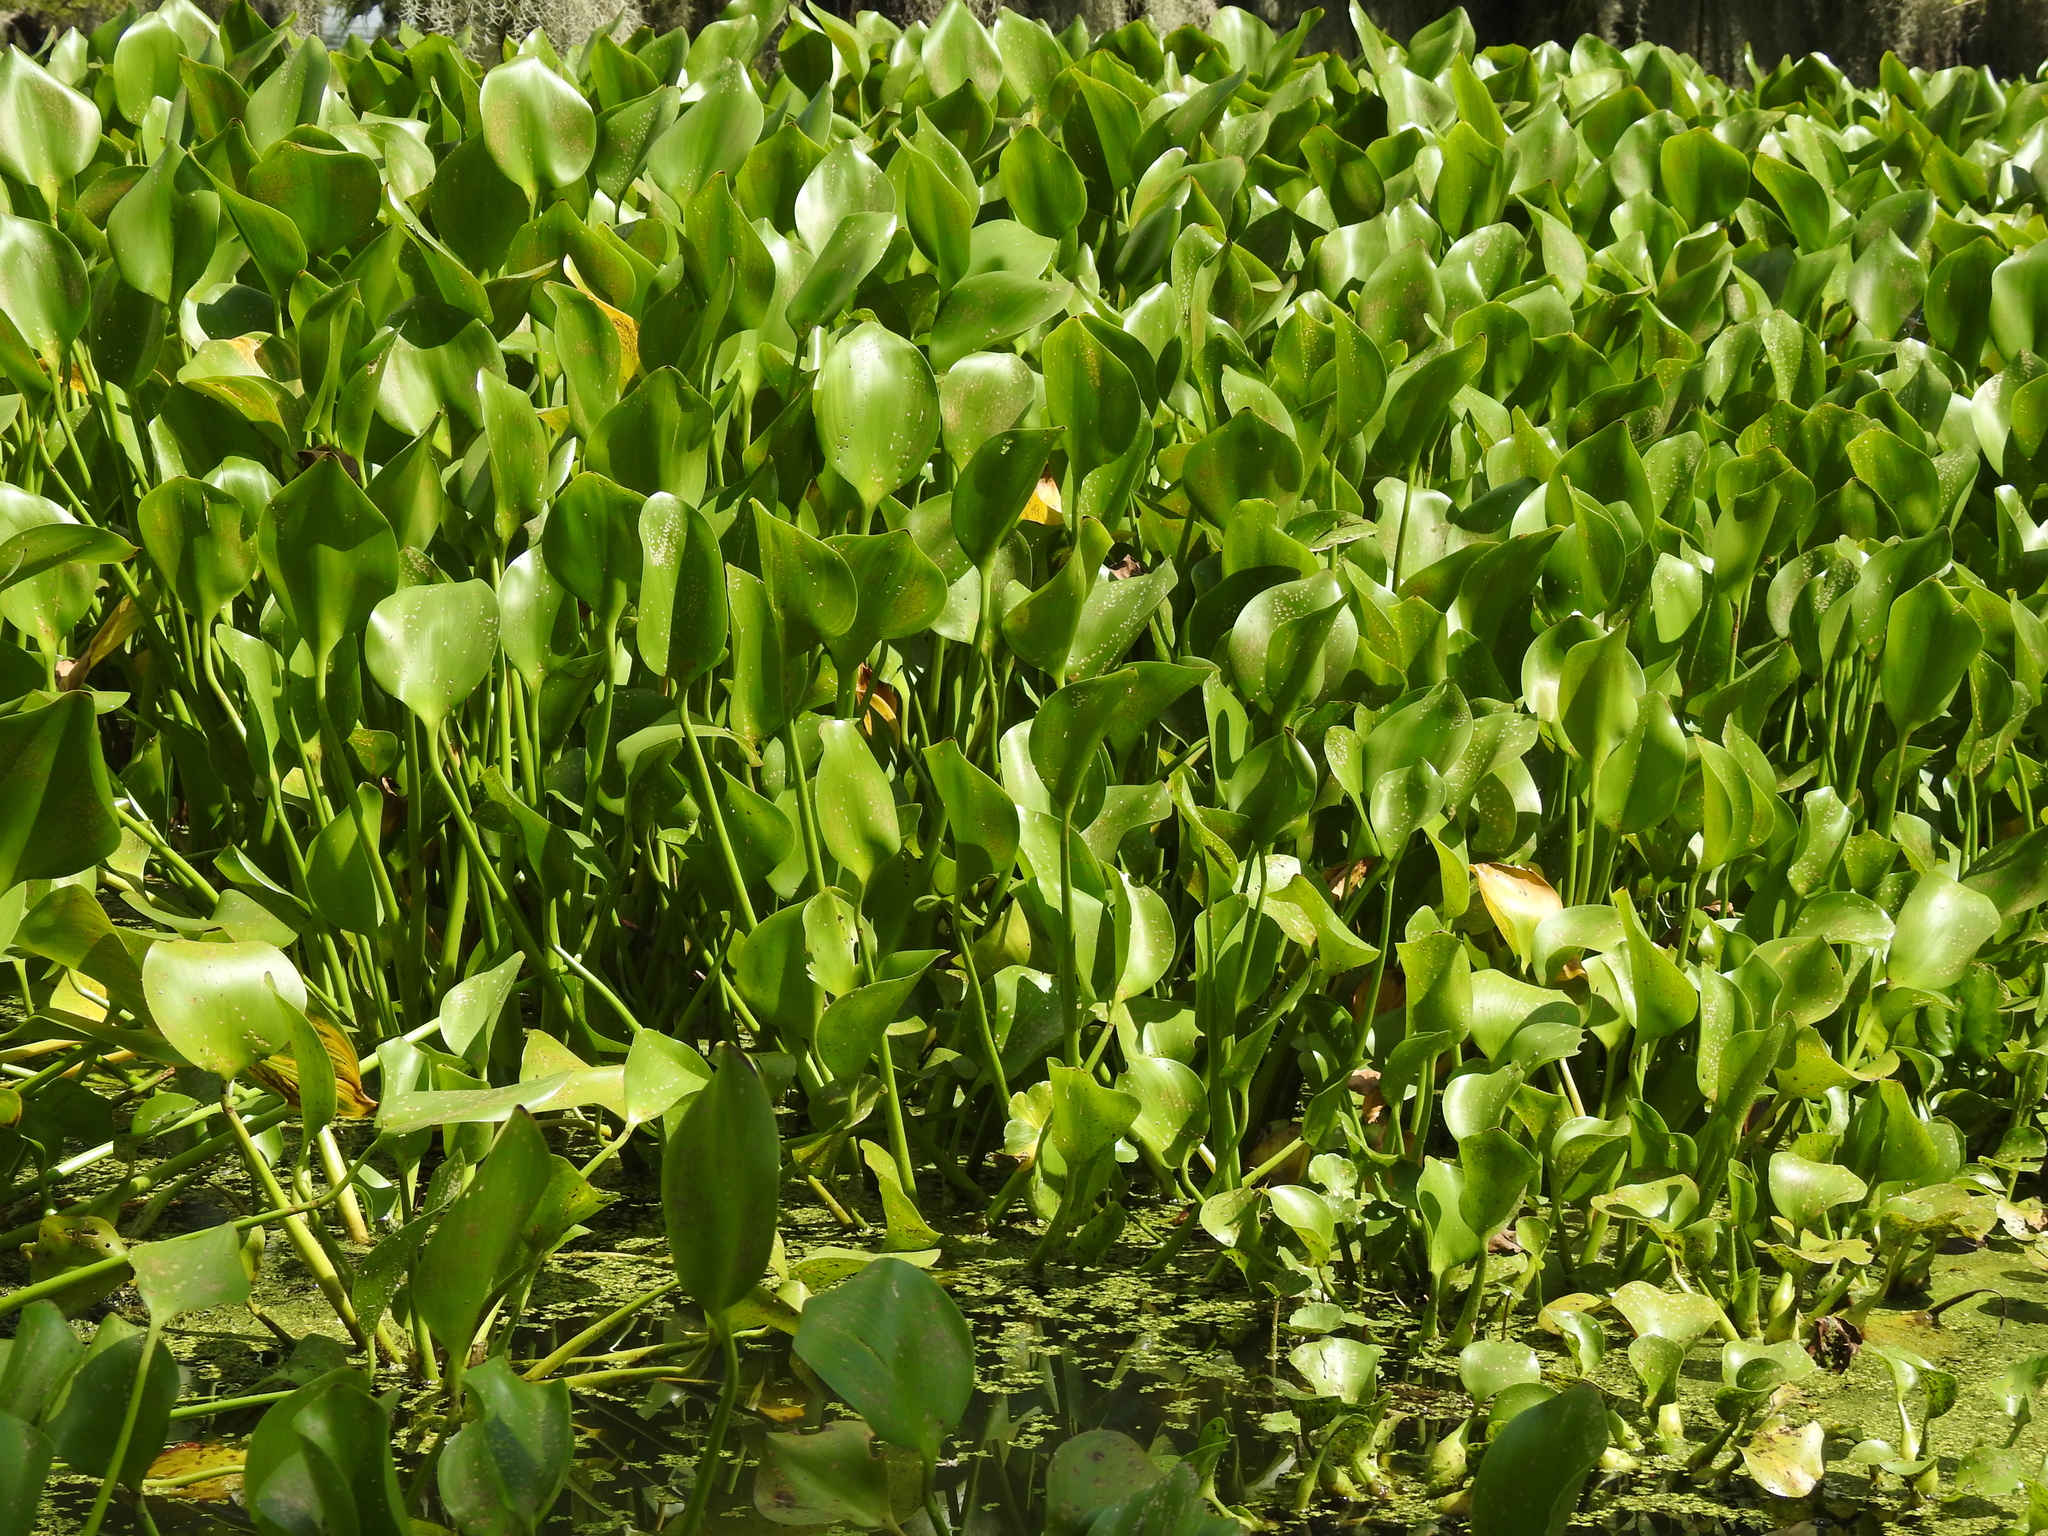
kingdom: Plantae
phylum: Tracheophyta
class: Liliopsida
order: Commelinales
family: Pontederiaceae
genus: Pontederia
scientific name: Pontederia crassipes
